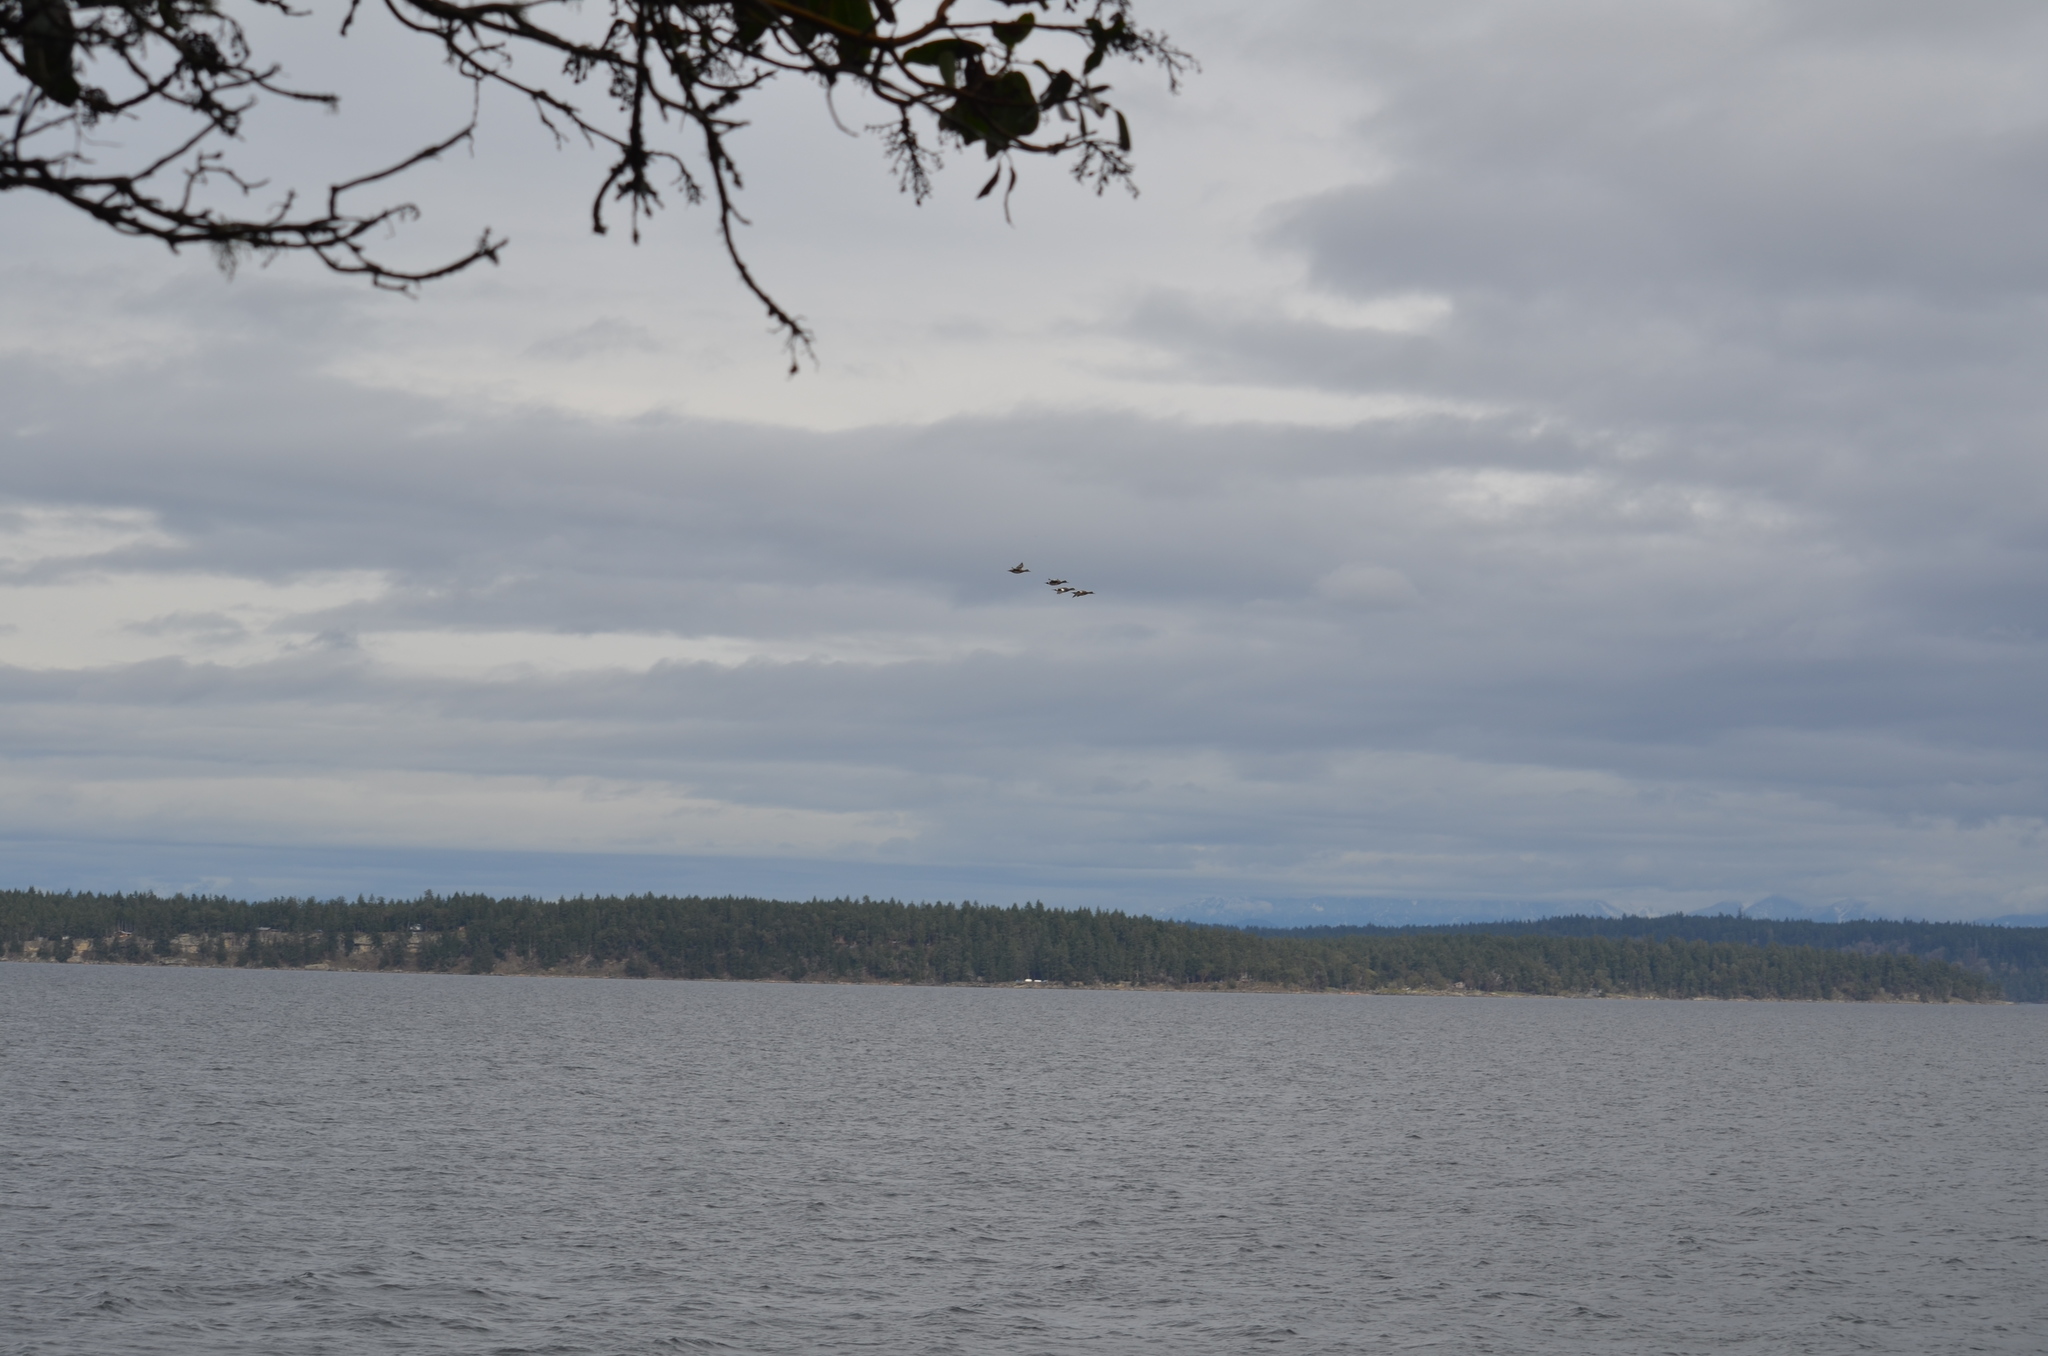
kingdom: Animalia
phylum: Chordata
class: Aves
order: Anseriformes
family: Anatidae
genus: Mareca
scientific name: Mareca americana
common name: American wigeon
